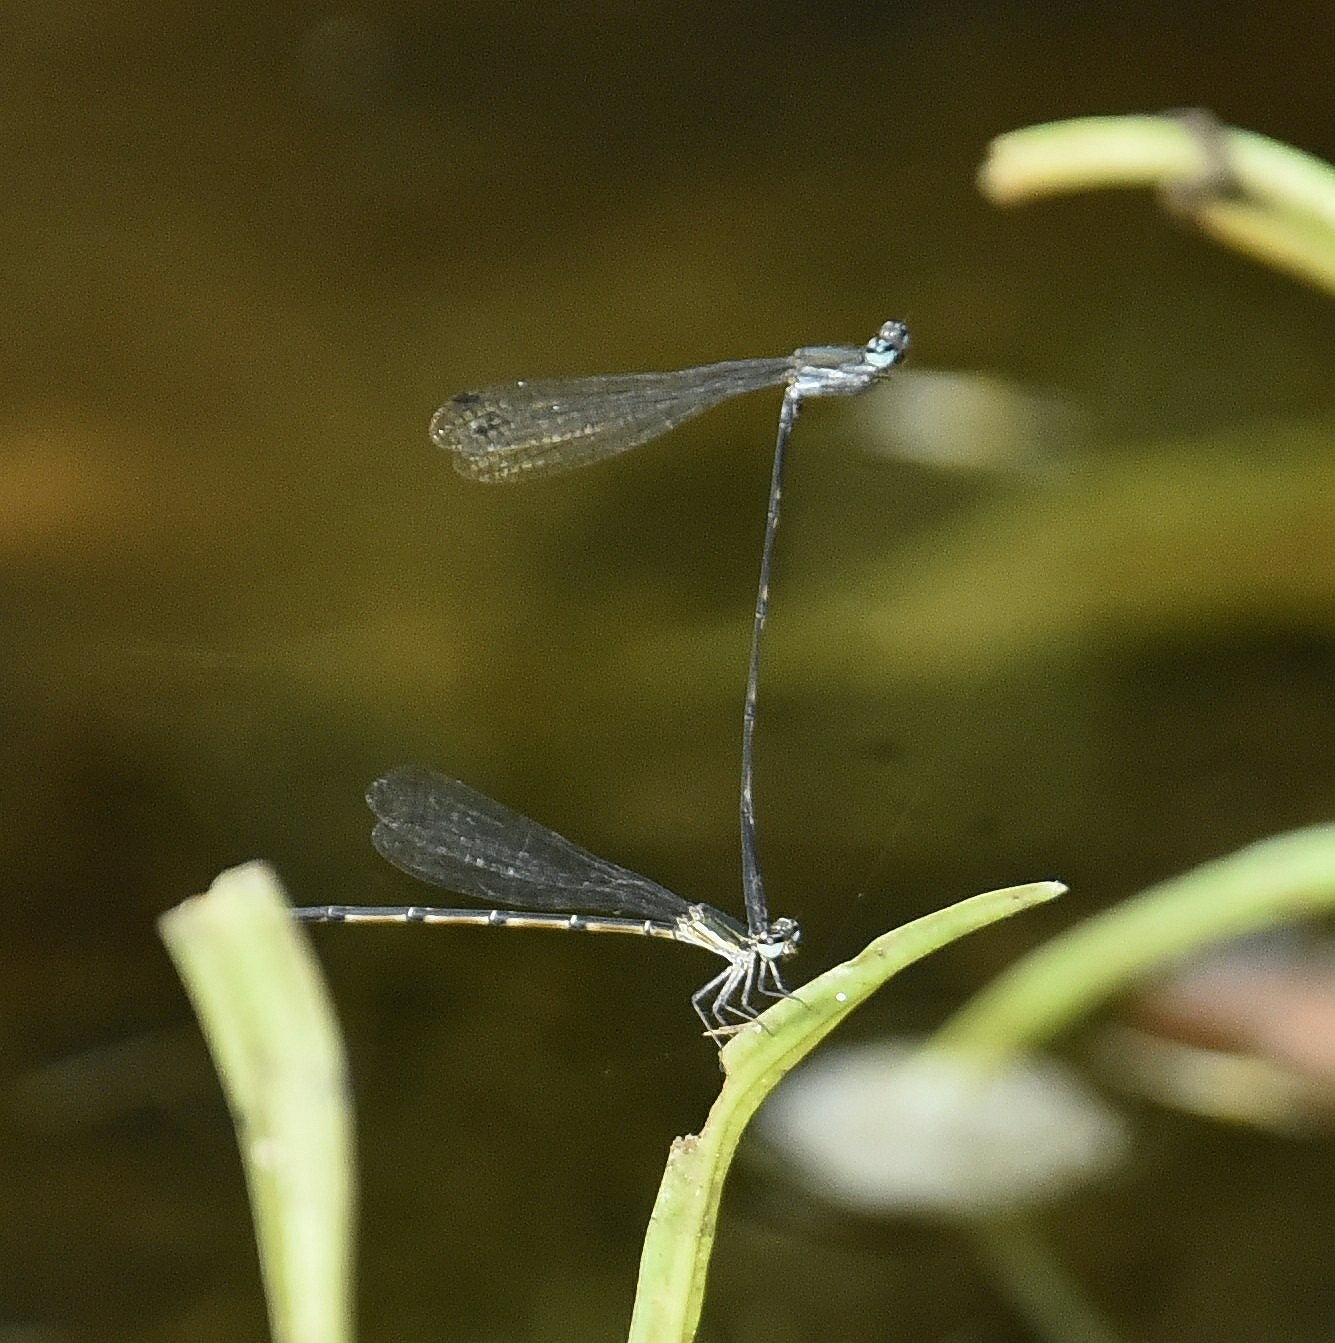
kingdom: Animalia
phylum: Arthropoda
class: Insecta
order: Odonata
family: Platycnemididae
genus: Elattoneura
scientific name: Elattoneura tetrica
